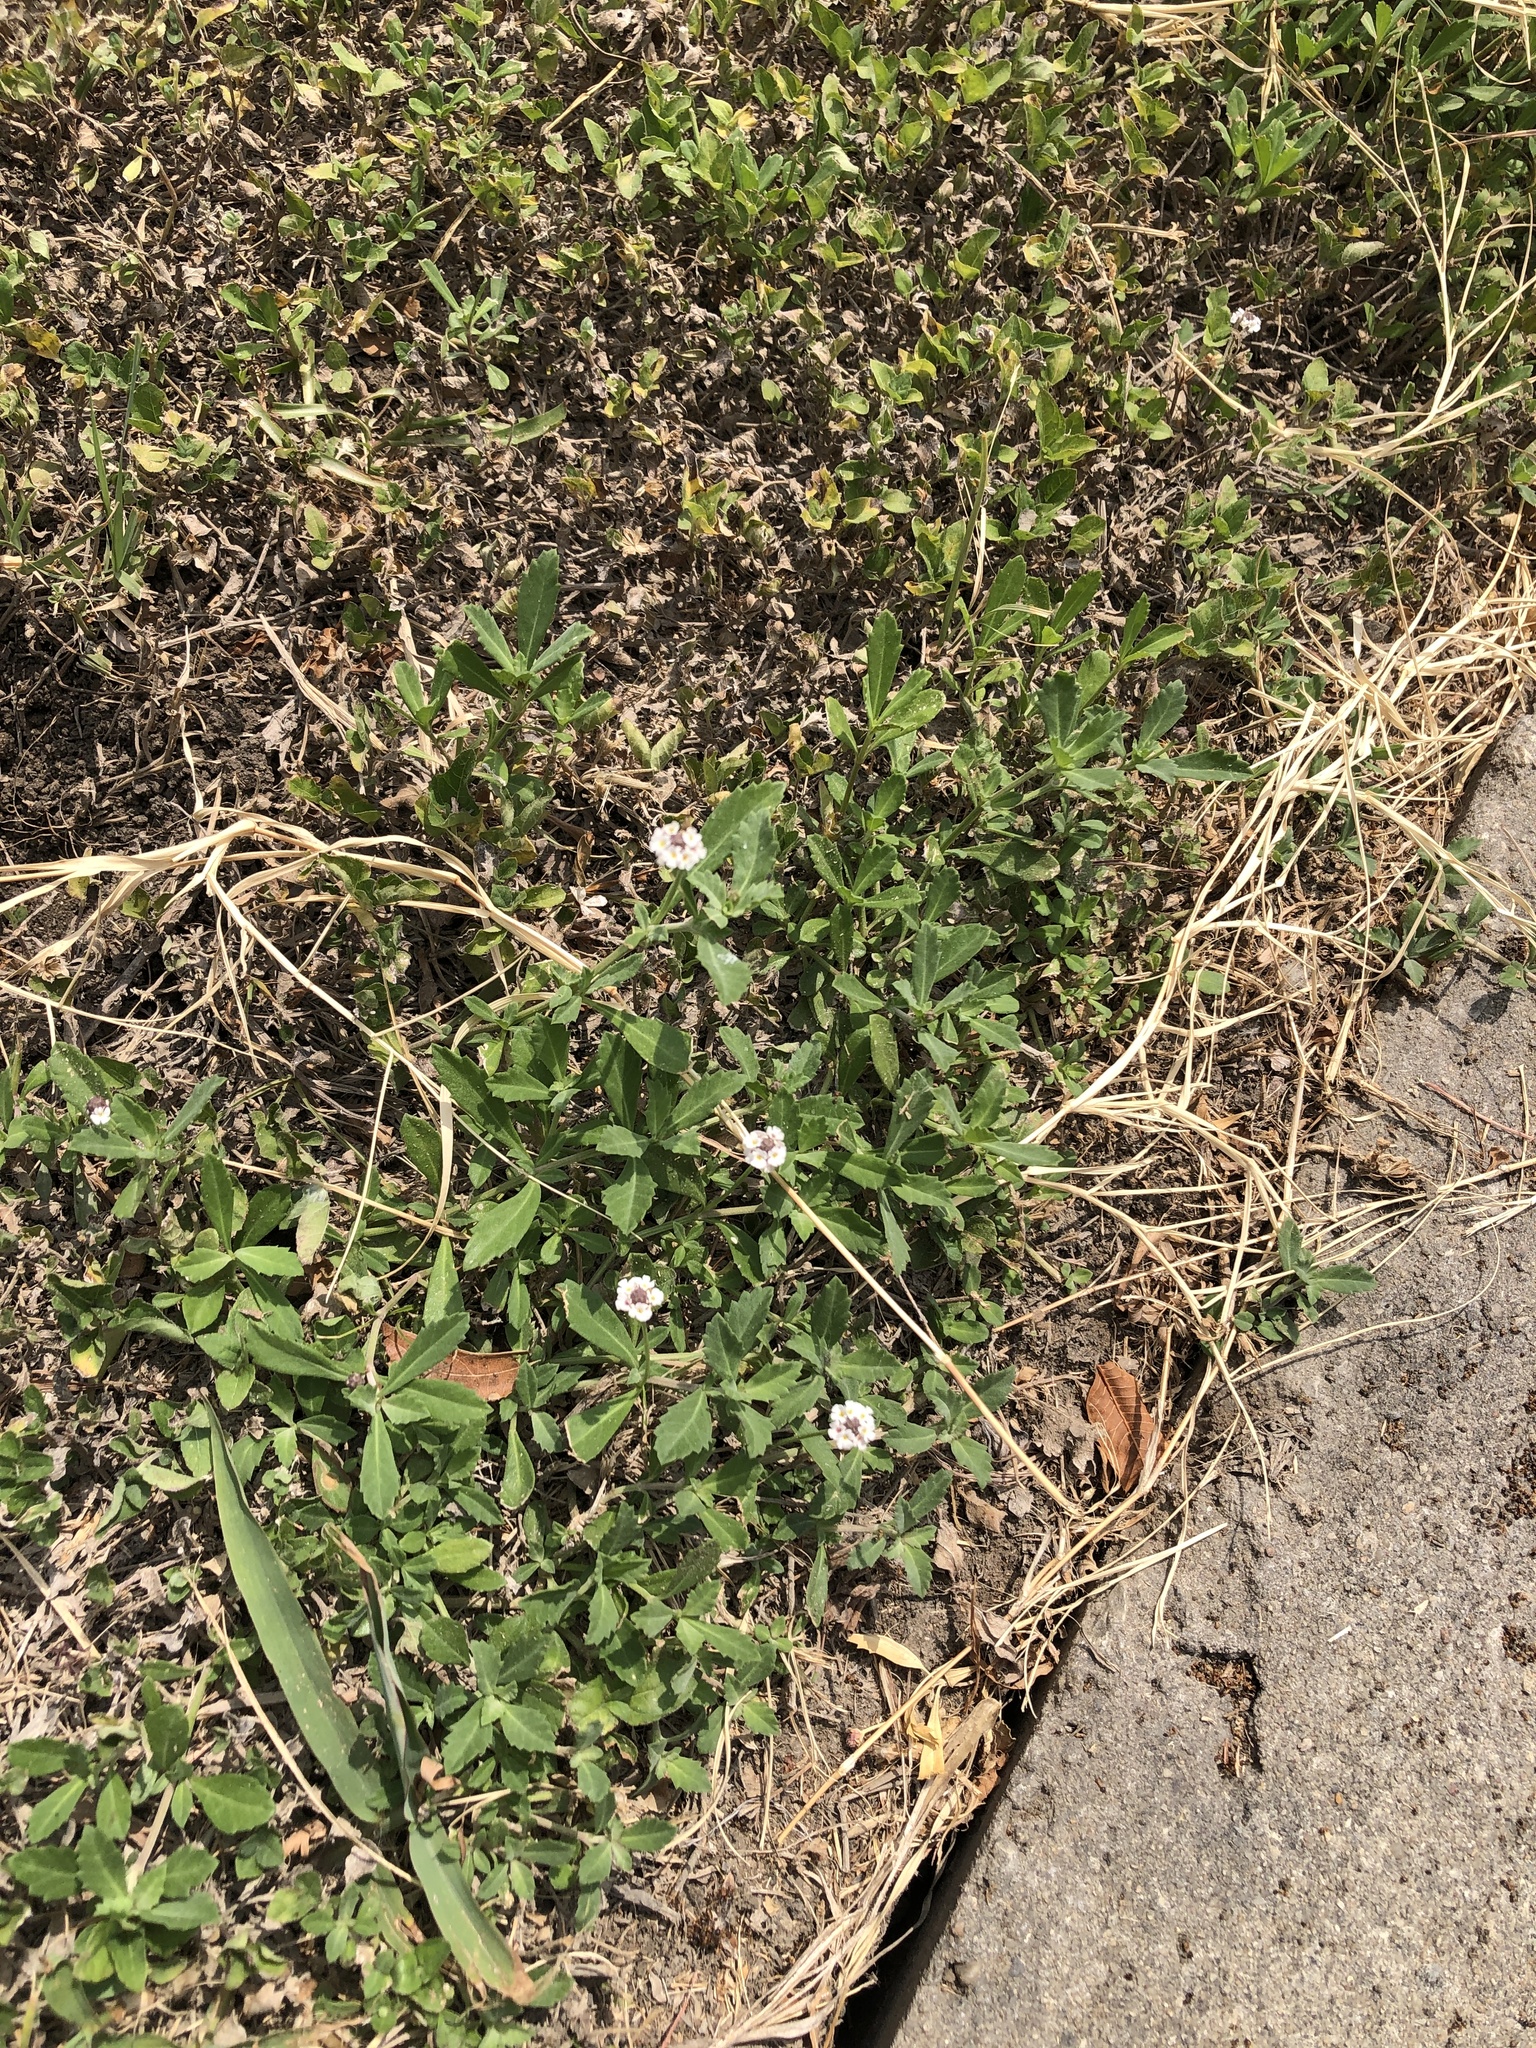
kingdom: Plantae
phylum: Tracheophyta
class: Magnoliopsida
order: Lamiales
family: Verbenaceae
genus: Phyla
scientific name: Phyla nodiflora
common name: Frogfruit
